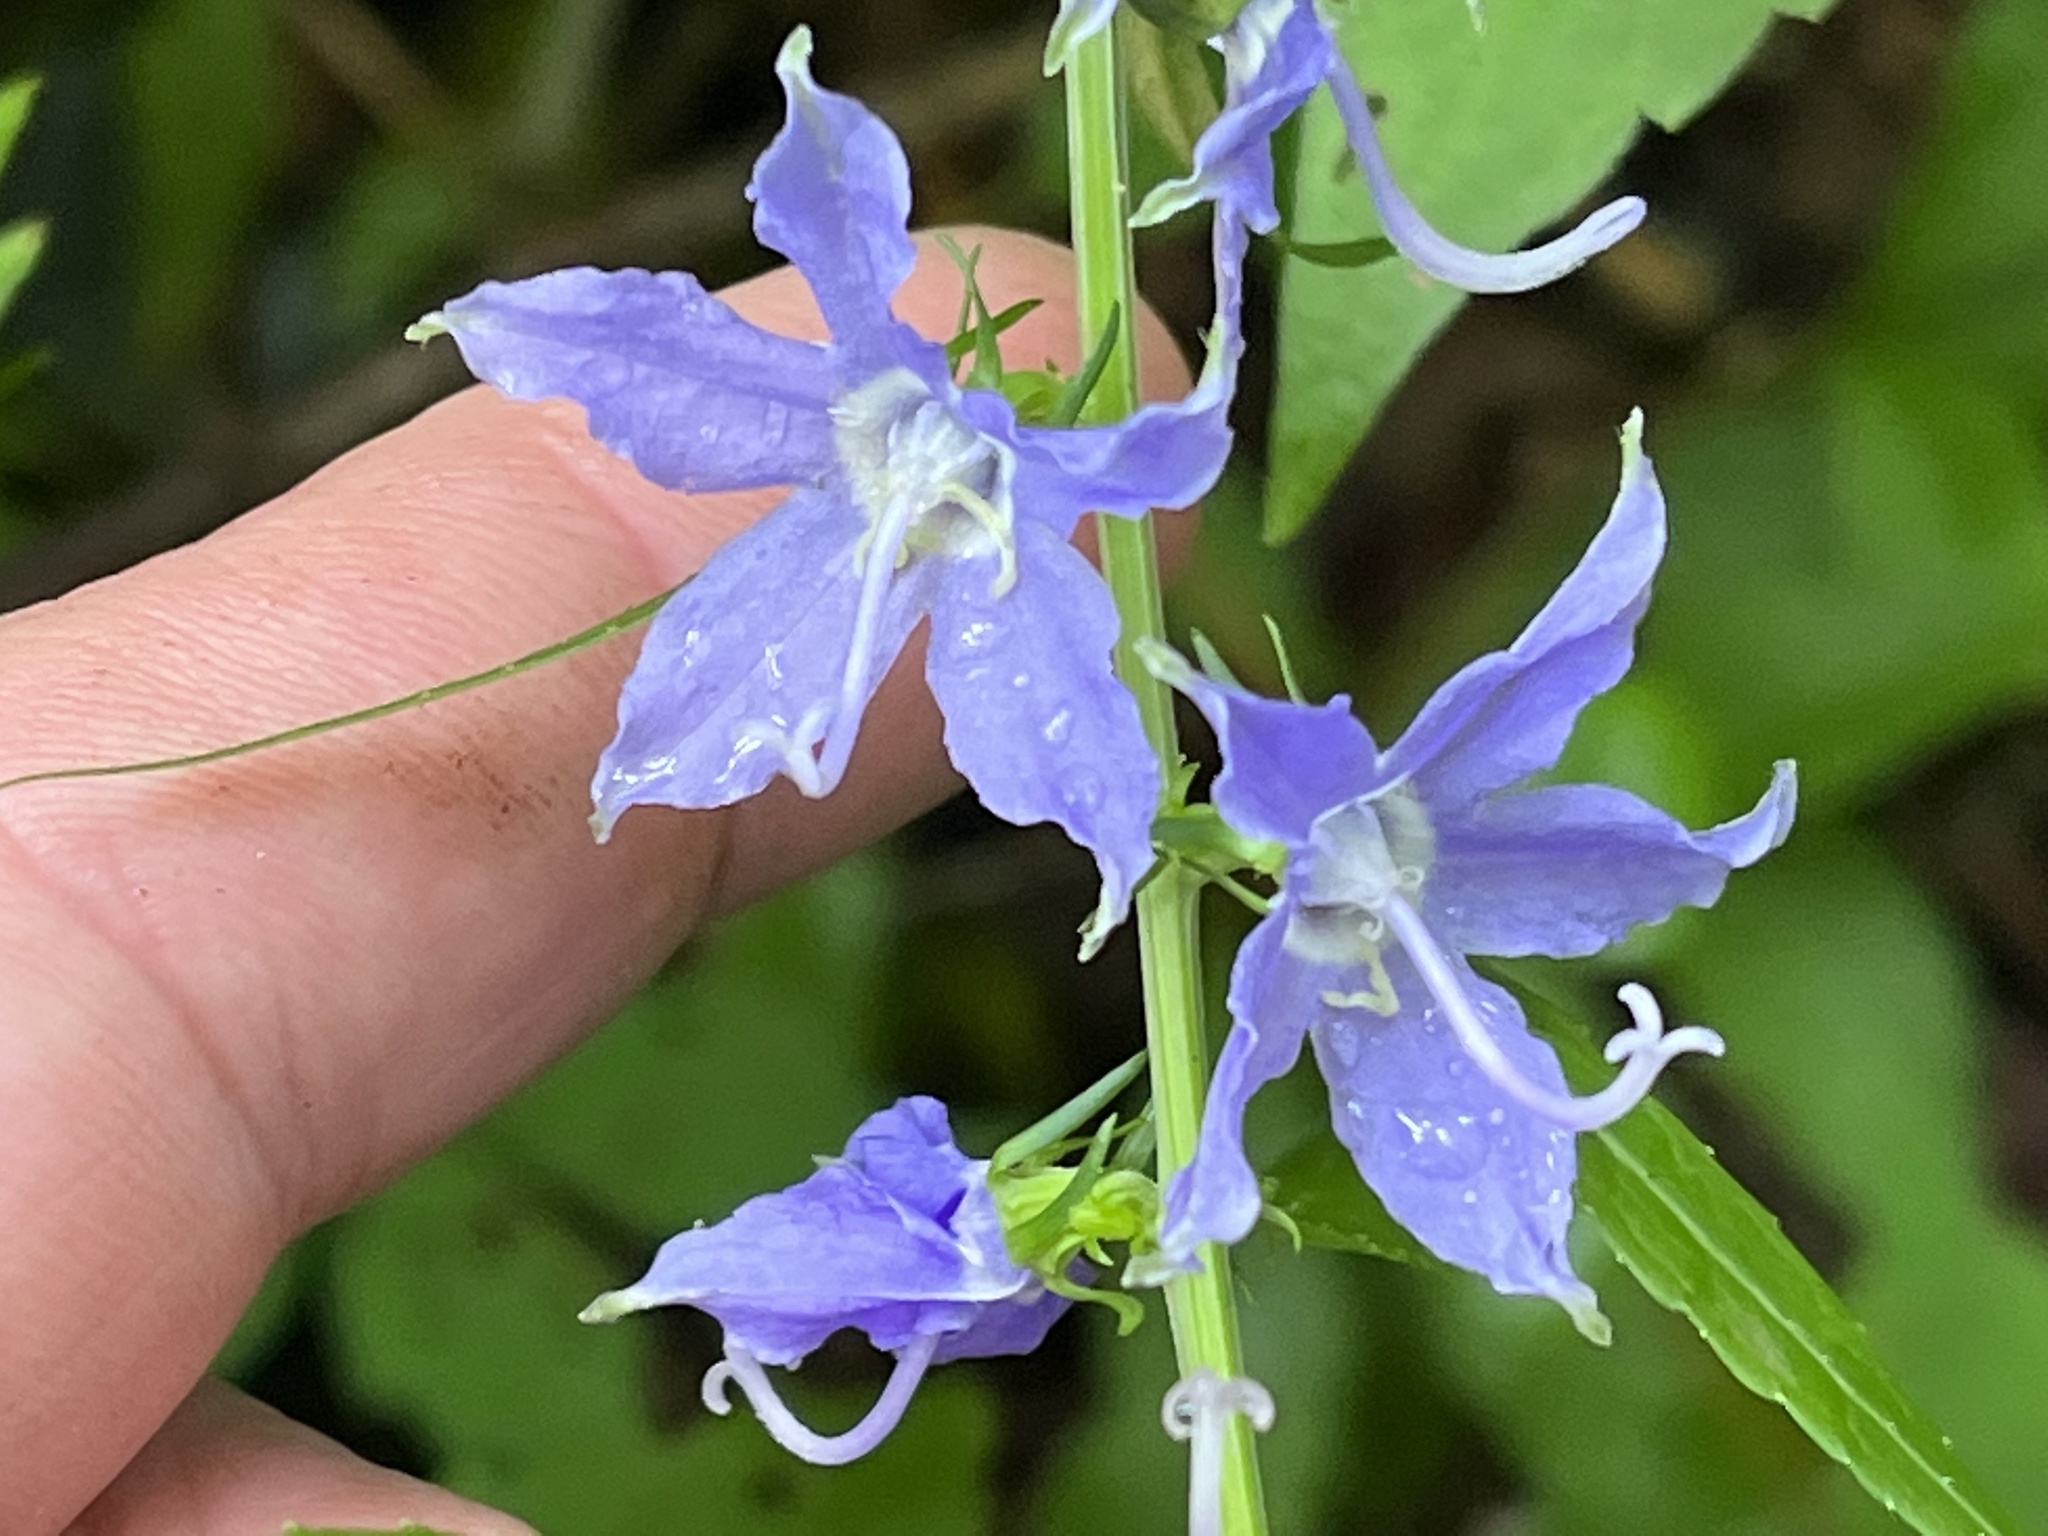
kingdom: Plantae
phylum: Tracheophyta
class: Magnoliopsida
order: Asterales
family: Campanulaceae
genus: Campanulastrum
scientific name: Campanulastrum americanum
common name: American bellflower
